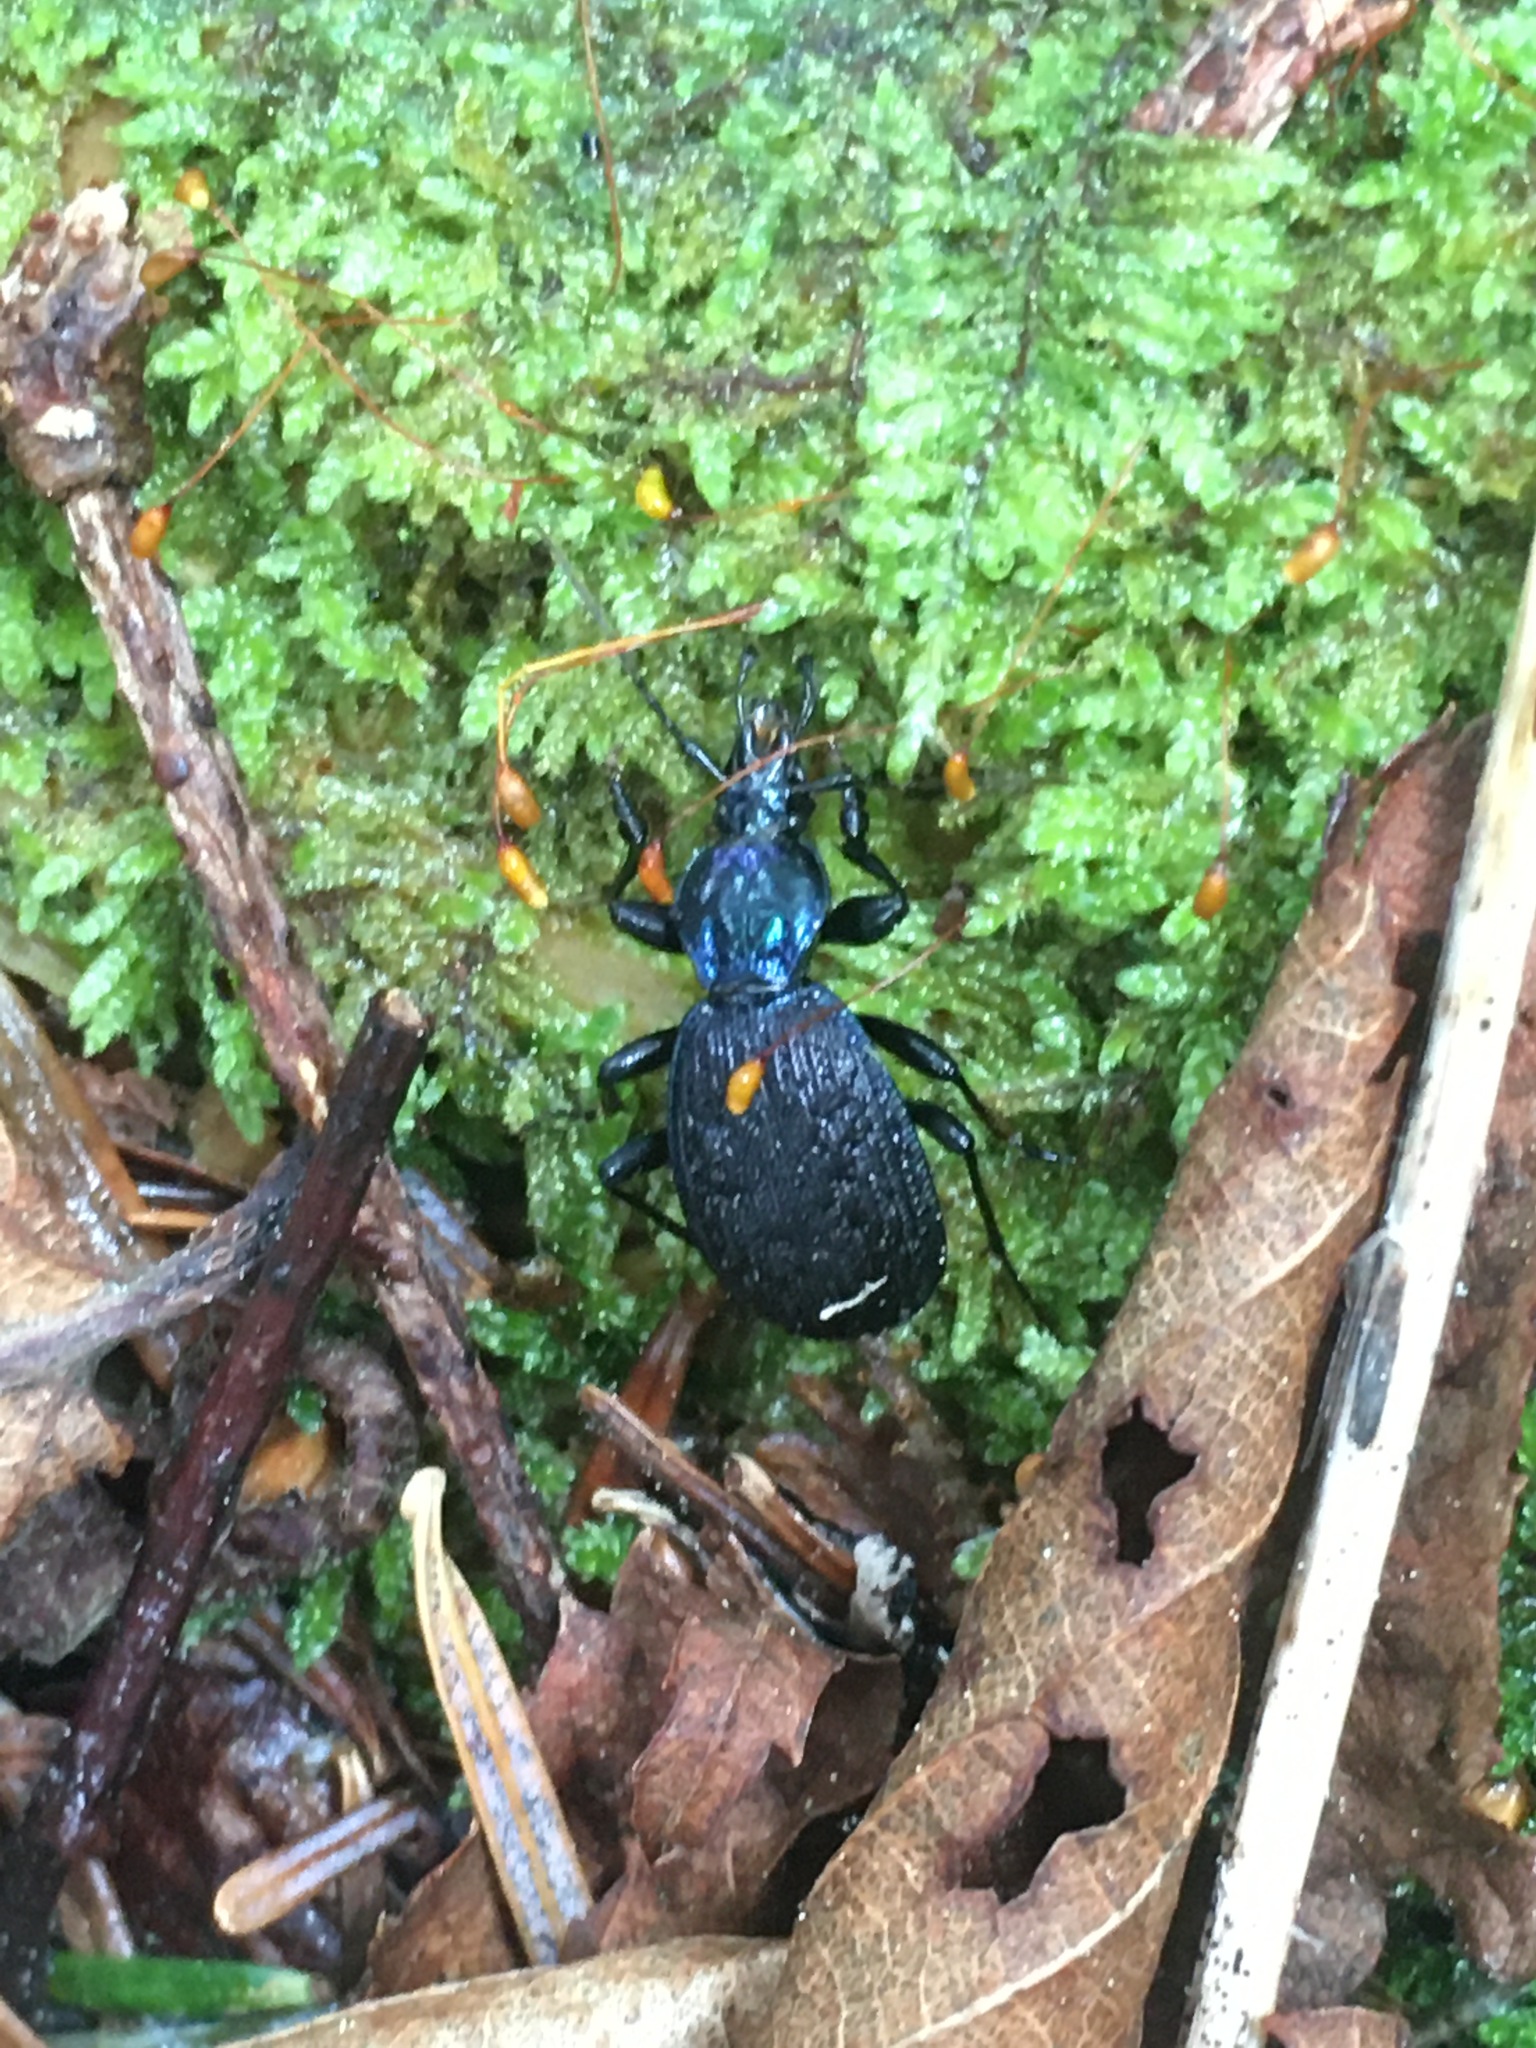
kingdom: Animalia
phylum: Arthropoda
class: Insecta
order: Coleoptera
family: Carabidae
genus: Sphaeroderus
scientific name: Sphaeroderus bicarinatus
